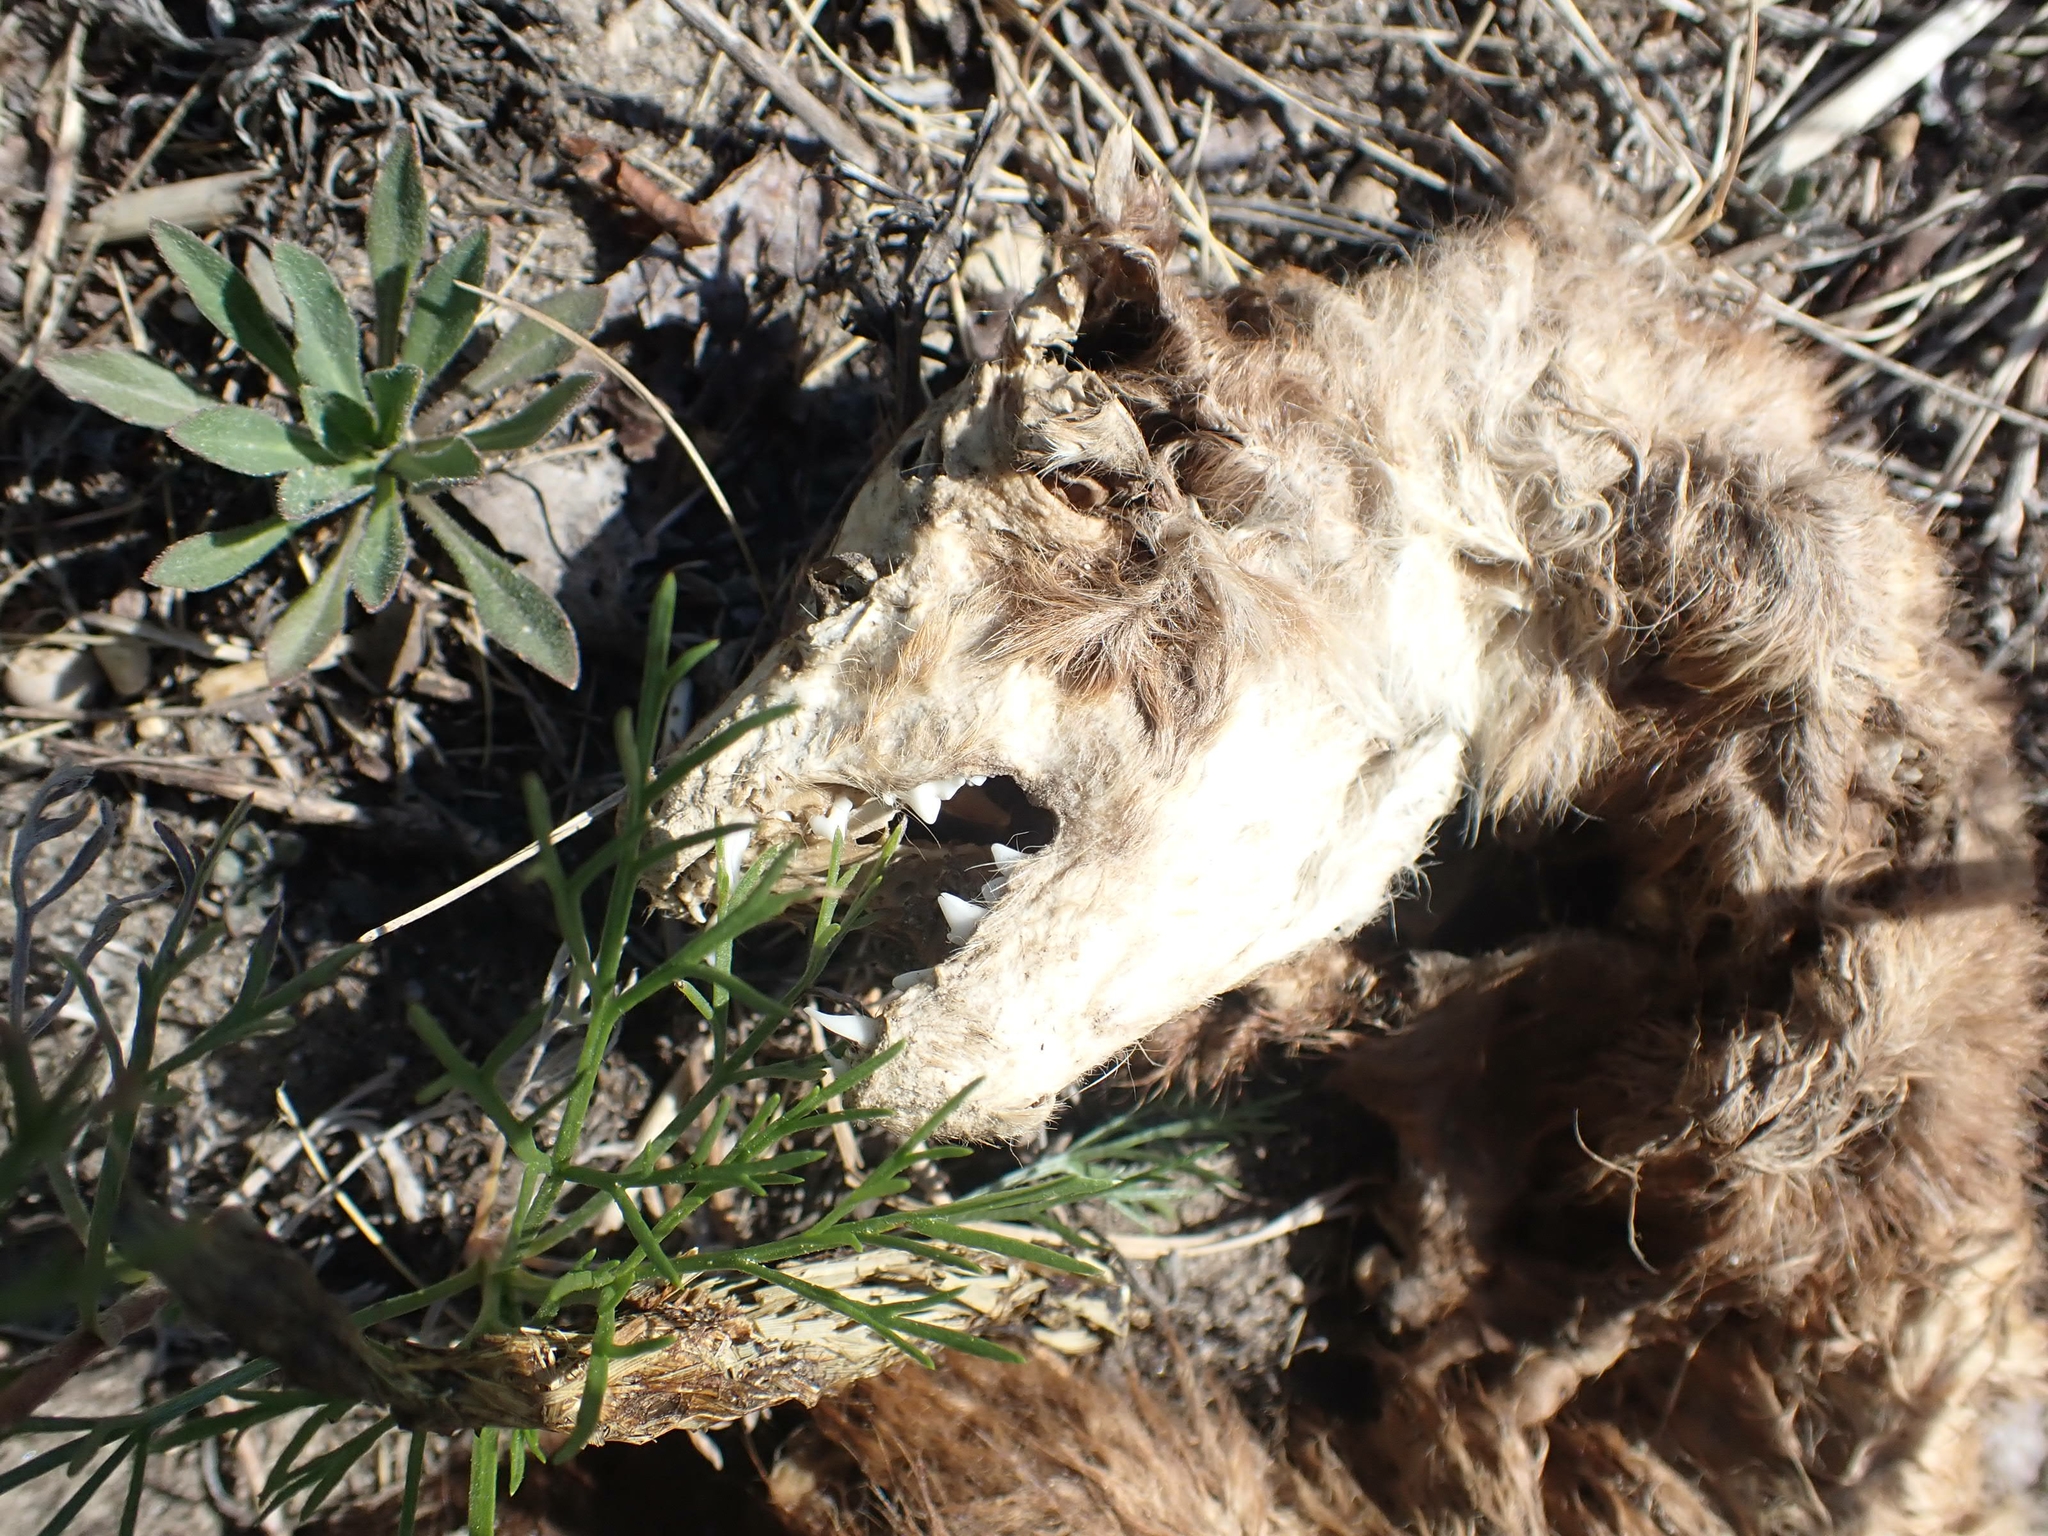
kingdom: Animalia
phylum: Chordata
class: Mammalia
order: Carnivora
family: Mustelidae
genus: Martes
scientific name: Martes americana
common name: American marten
